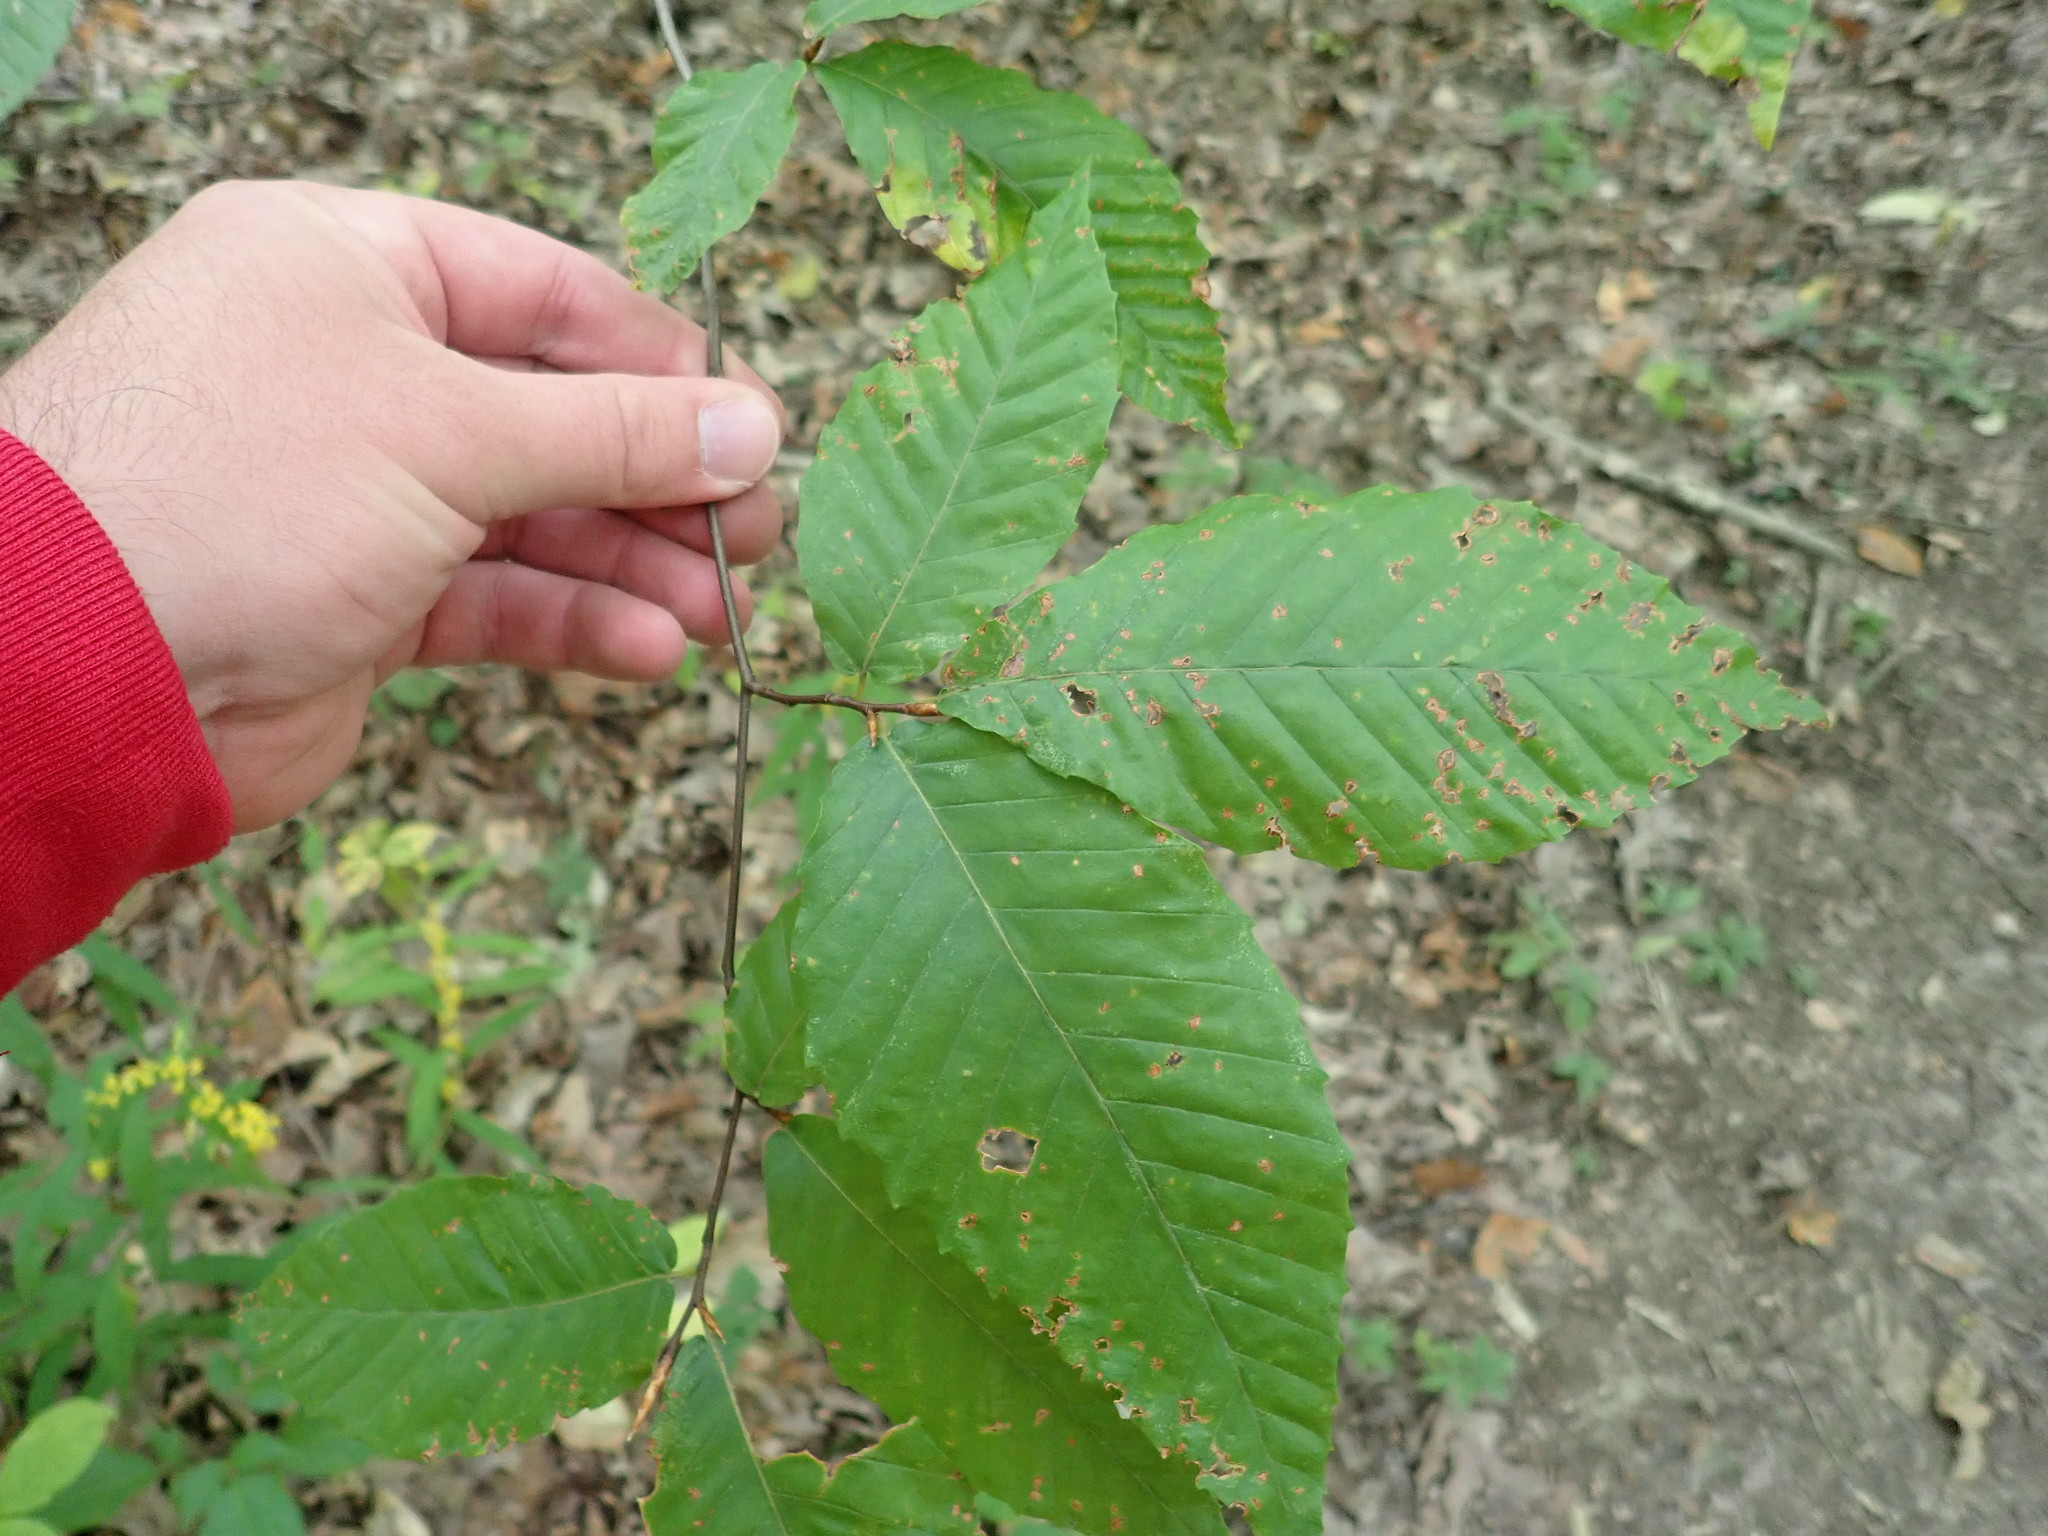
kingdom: Plantae
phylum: Tracheophyta
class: Magnoliopsida
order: Fagales
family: Fagaceae
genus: Fagus
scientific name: Fagus grandifolia
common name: American beech
